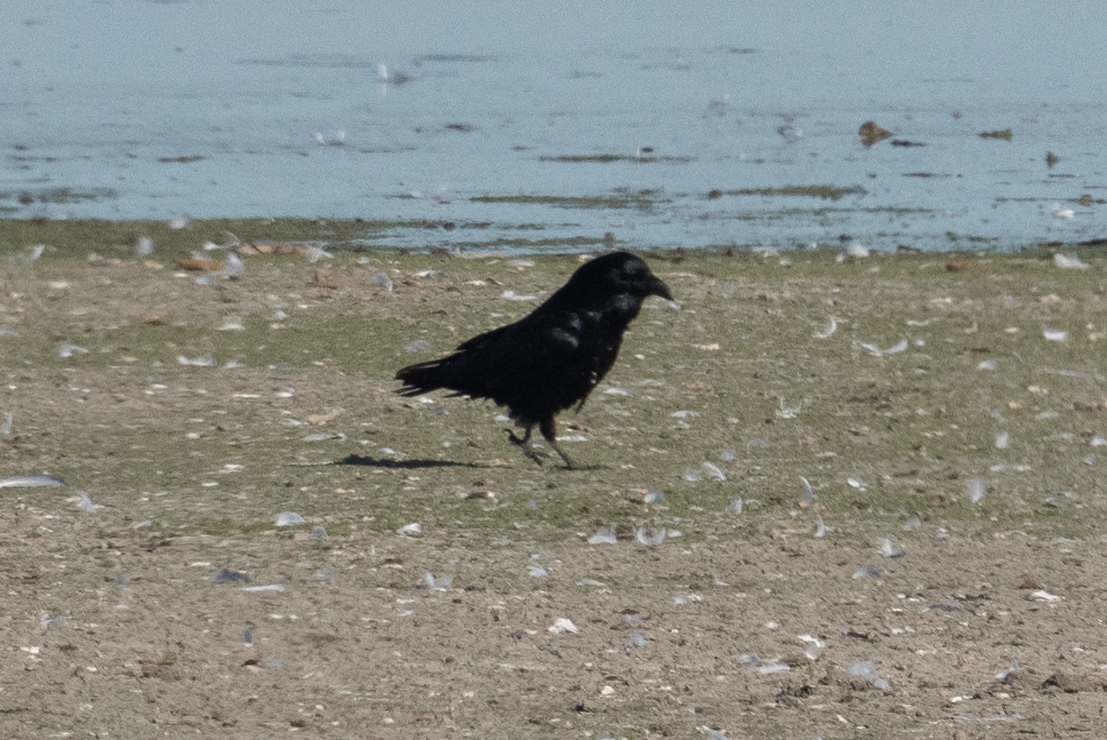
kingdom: Animalia
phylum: Chordata
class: Aves
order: Passeriformes
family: Corvidae
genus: Corvus
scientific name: Corvus corax
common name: Common raven
